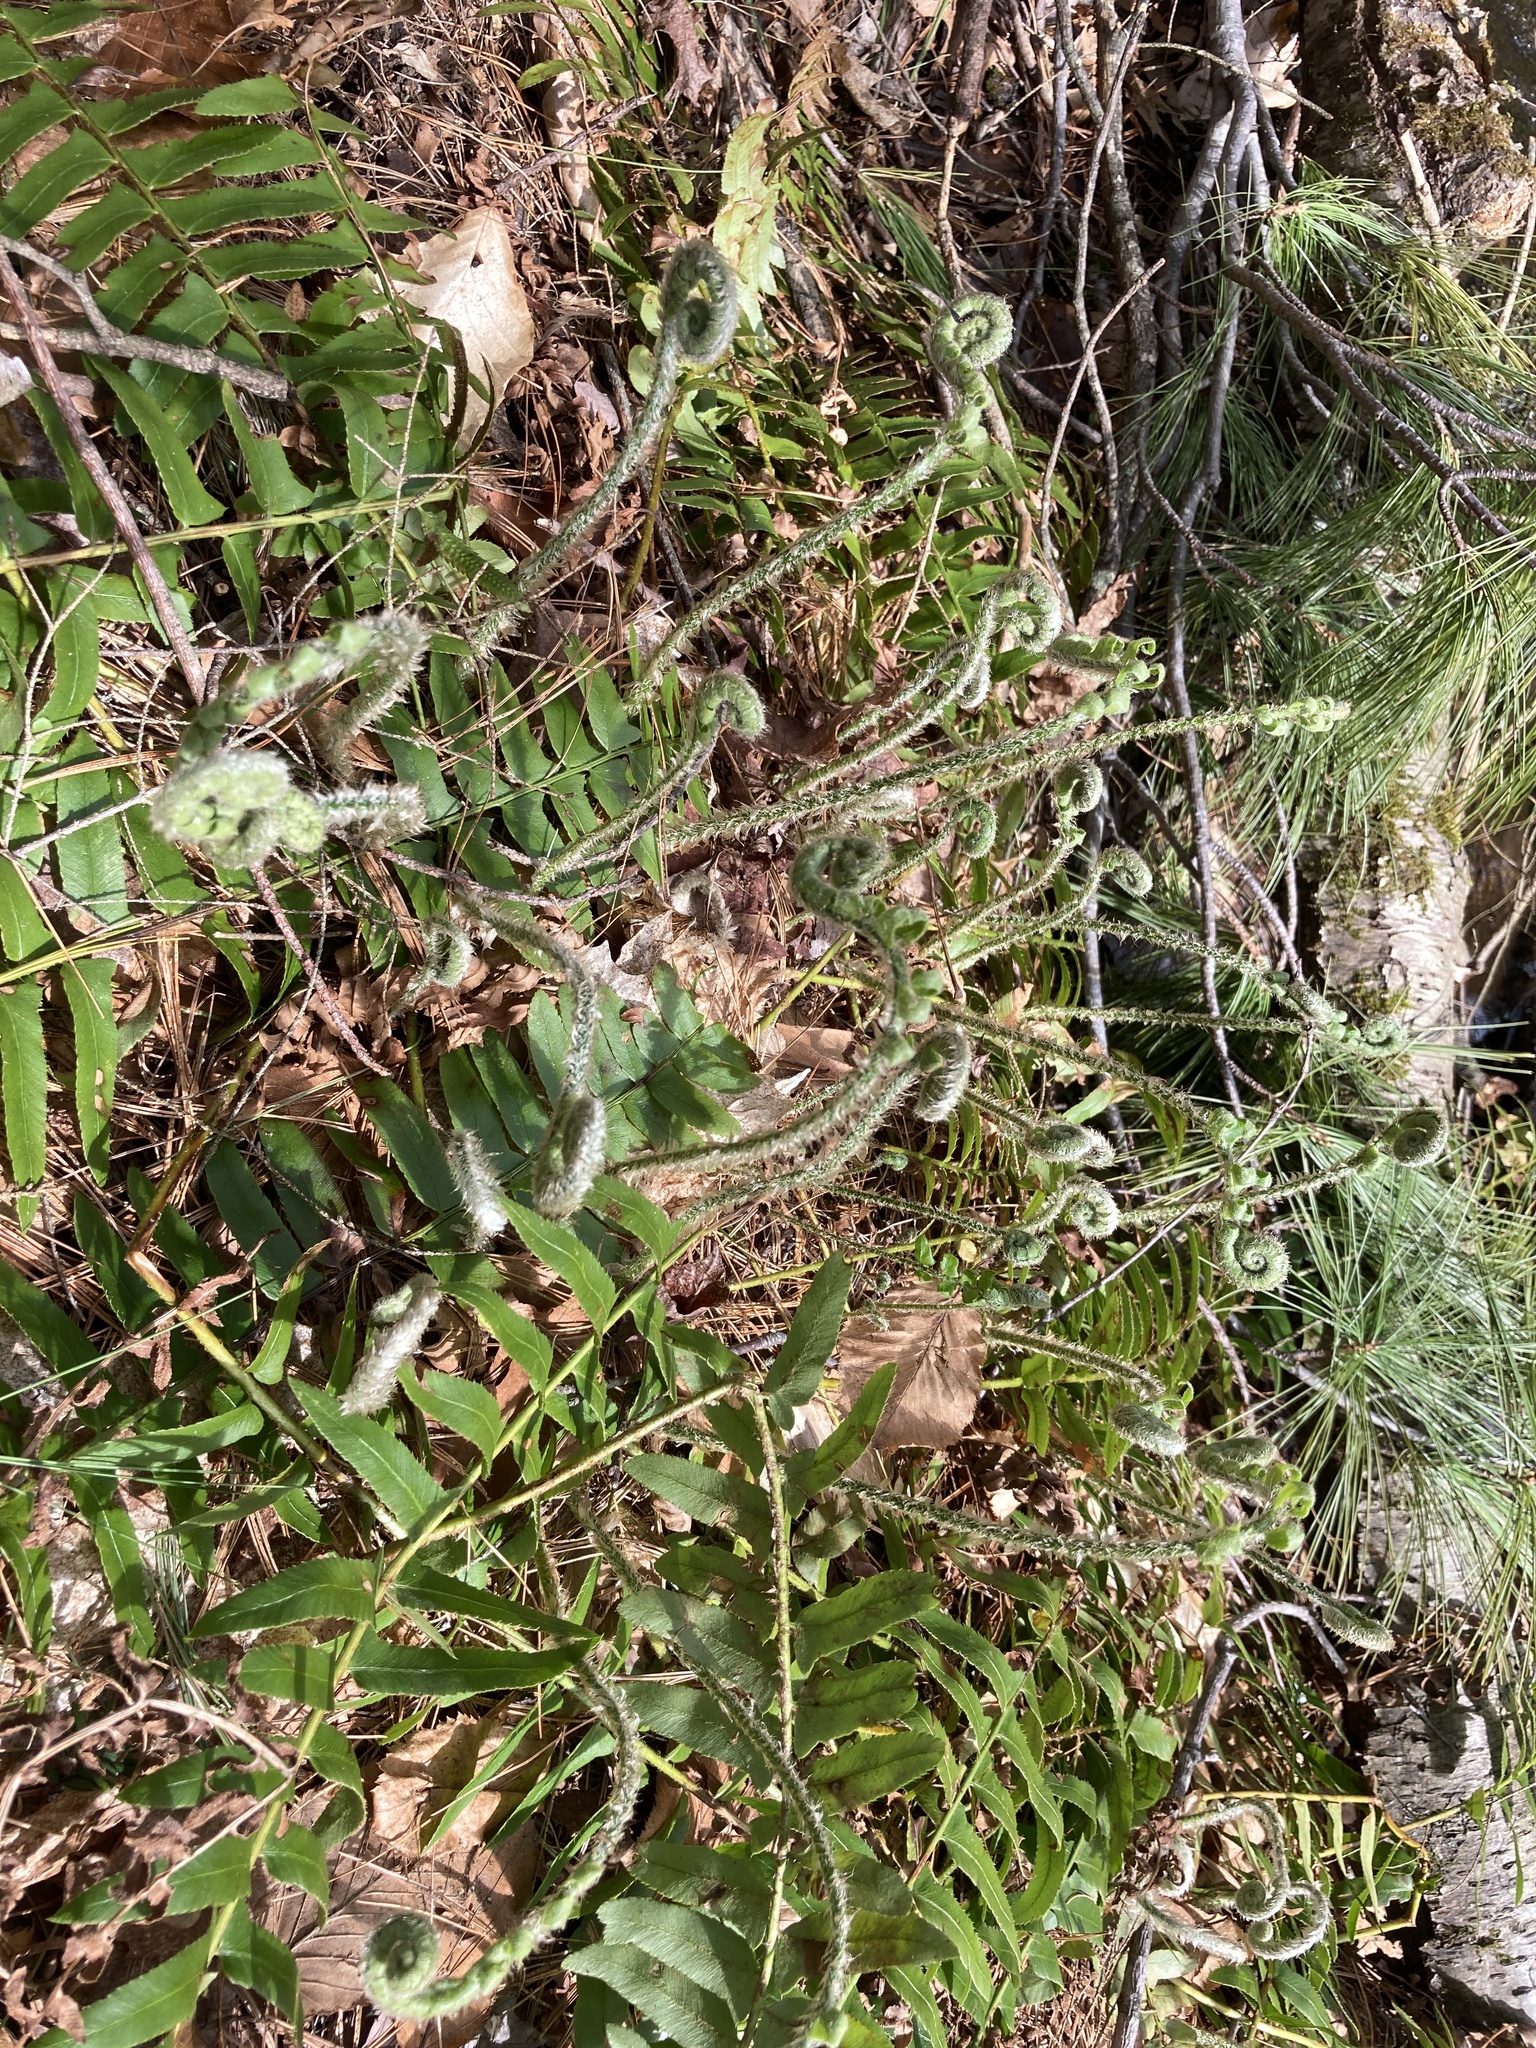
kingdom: Plantae
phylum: Tracheophyta
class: Polypodiopsida
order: Polypodiales
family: Dryopteridaceae
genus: Polystichum
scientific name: Polystichum acrostichoides
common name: Christmas fern
